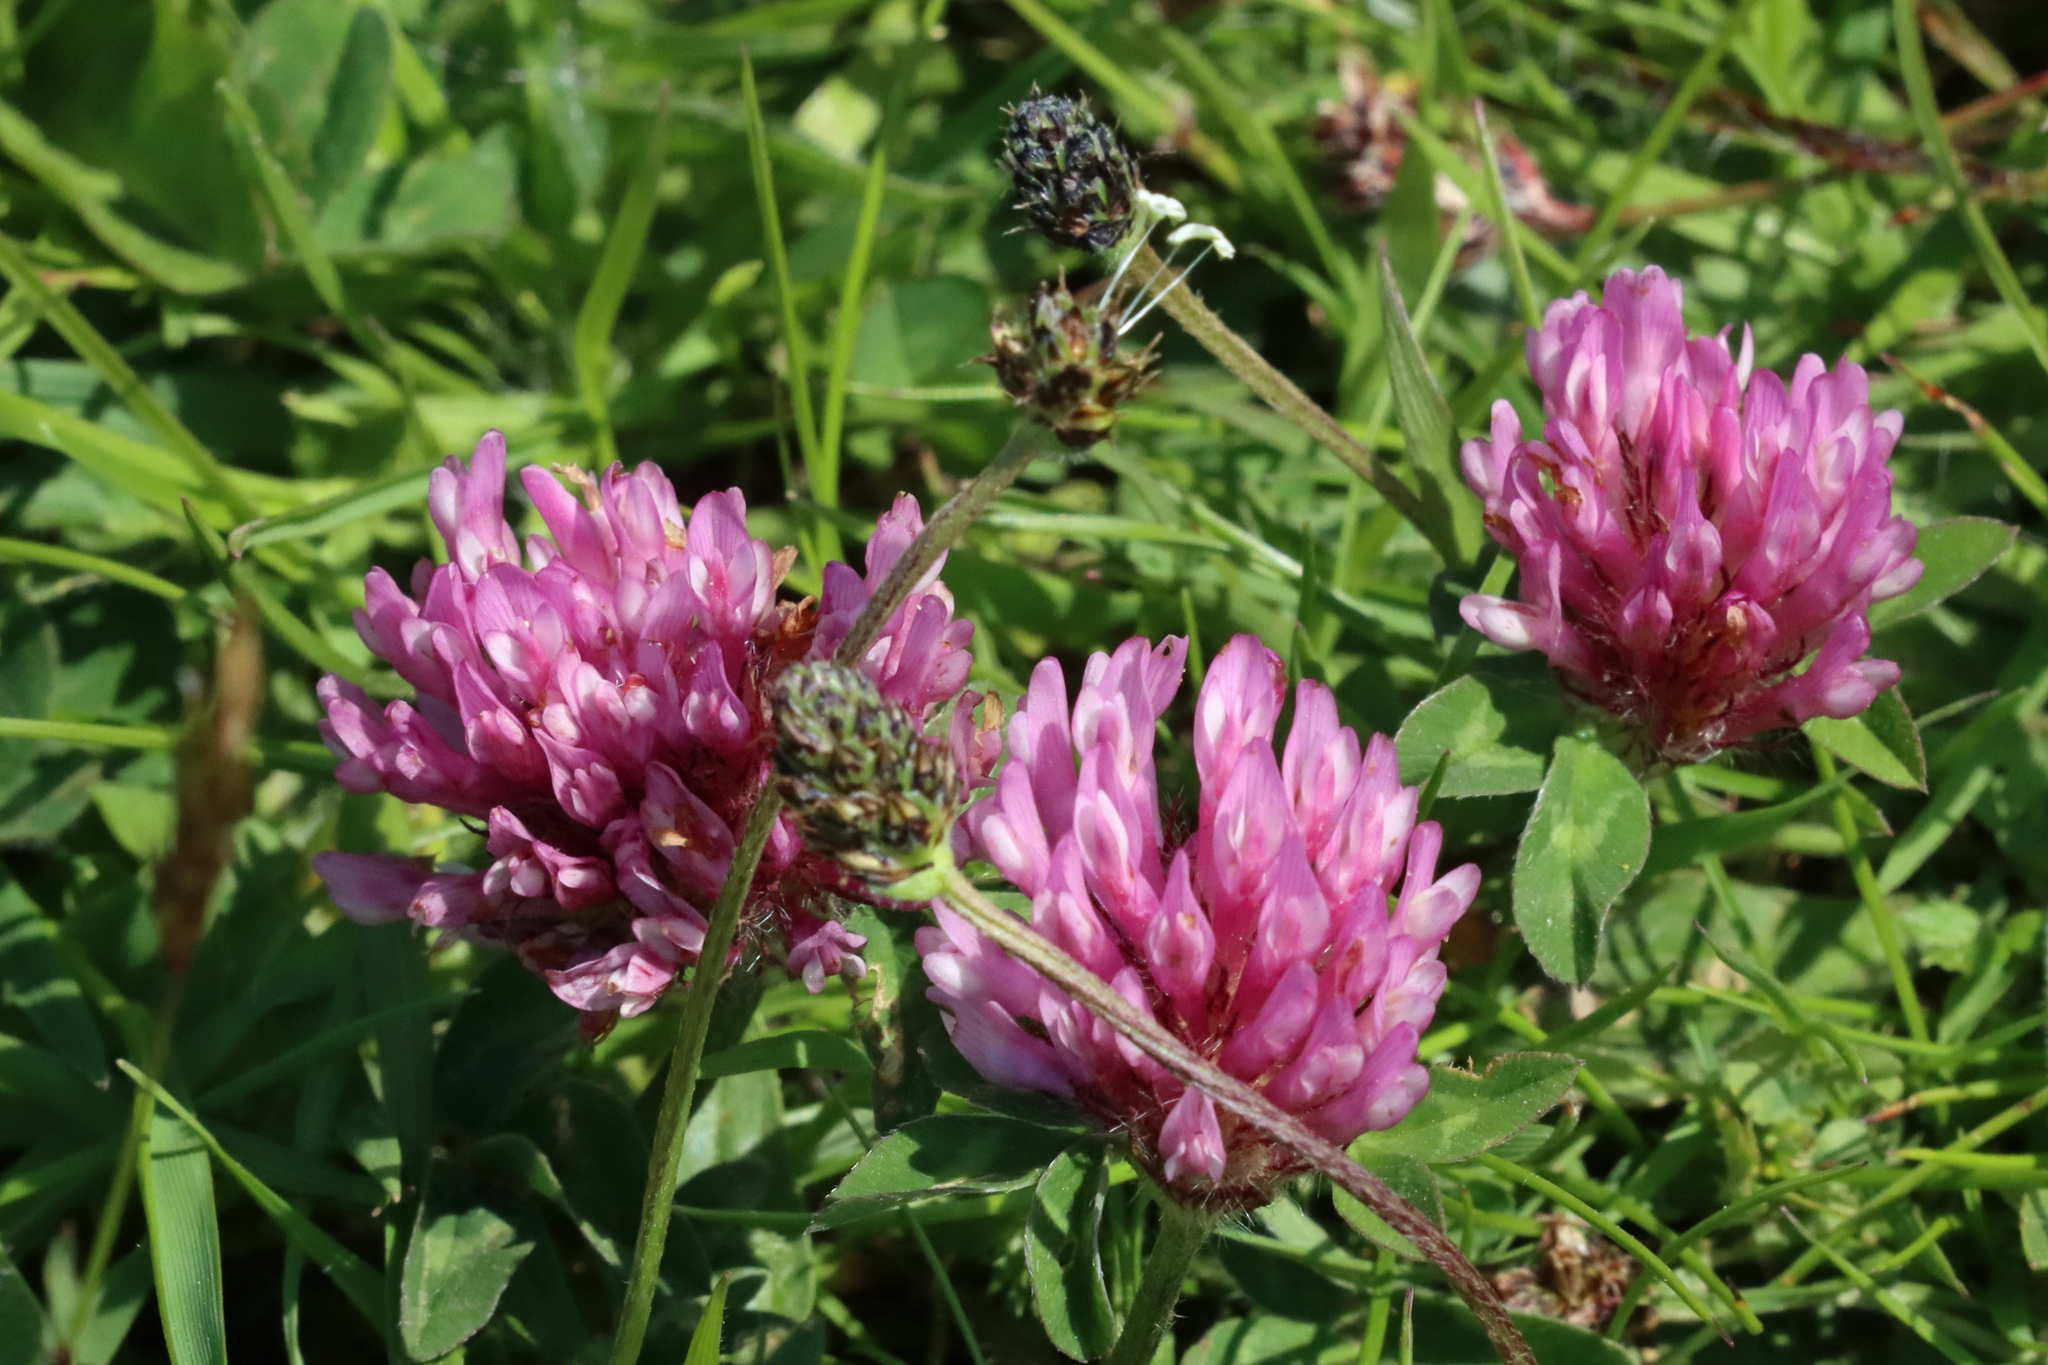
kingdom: Plantae
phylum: Tracheophyta
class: Magnoliopsida
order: Fabales
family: Fabaceae
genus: Trifolium
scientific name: Trifolium pratense
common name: Red clover
